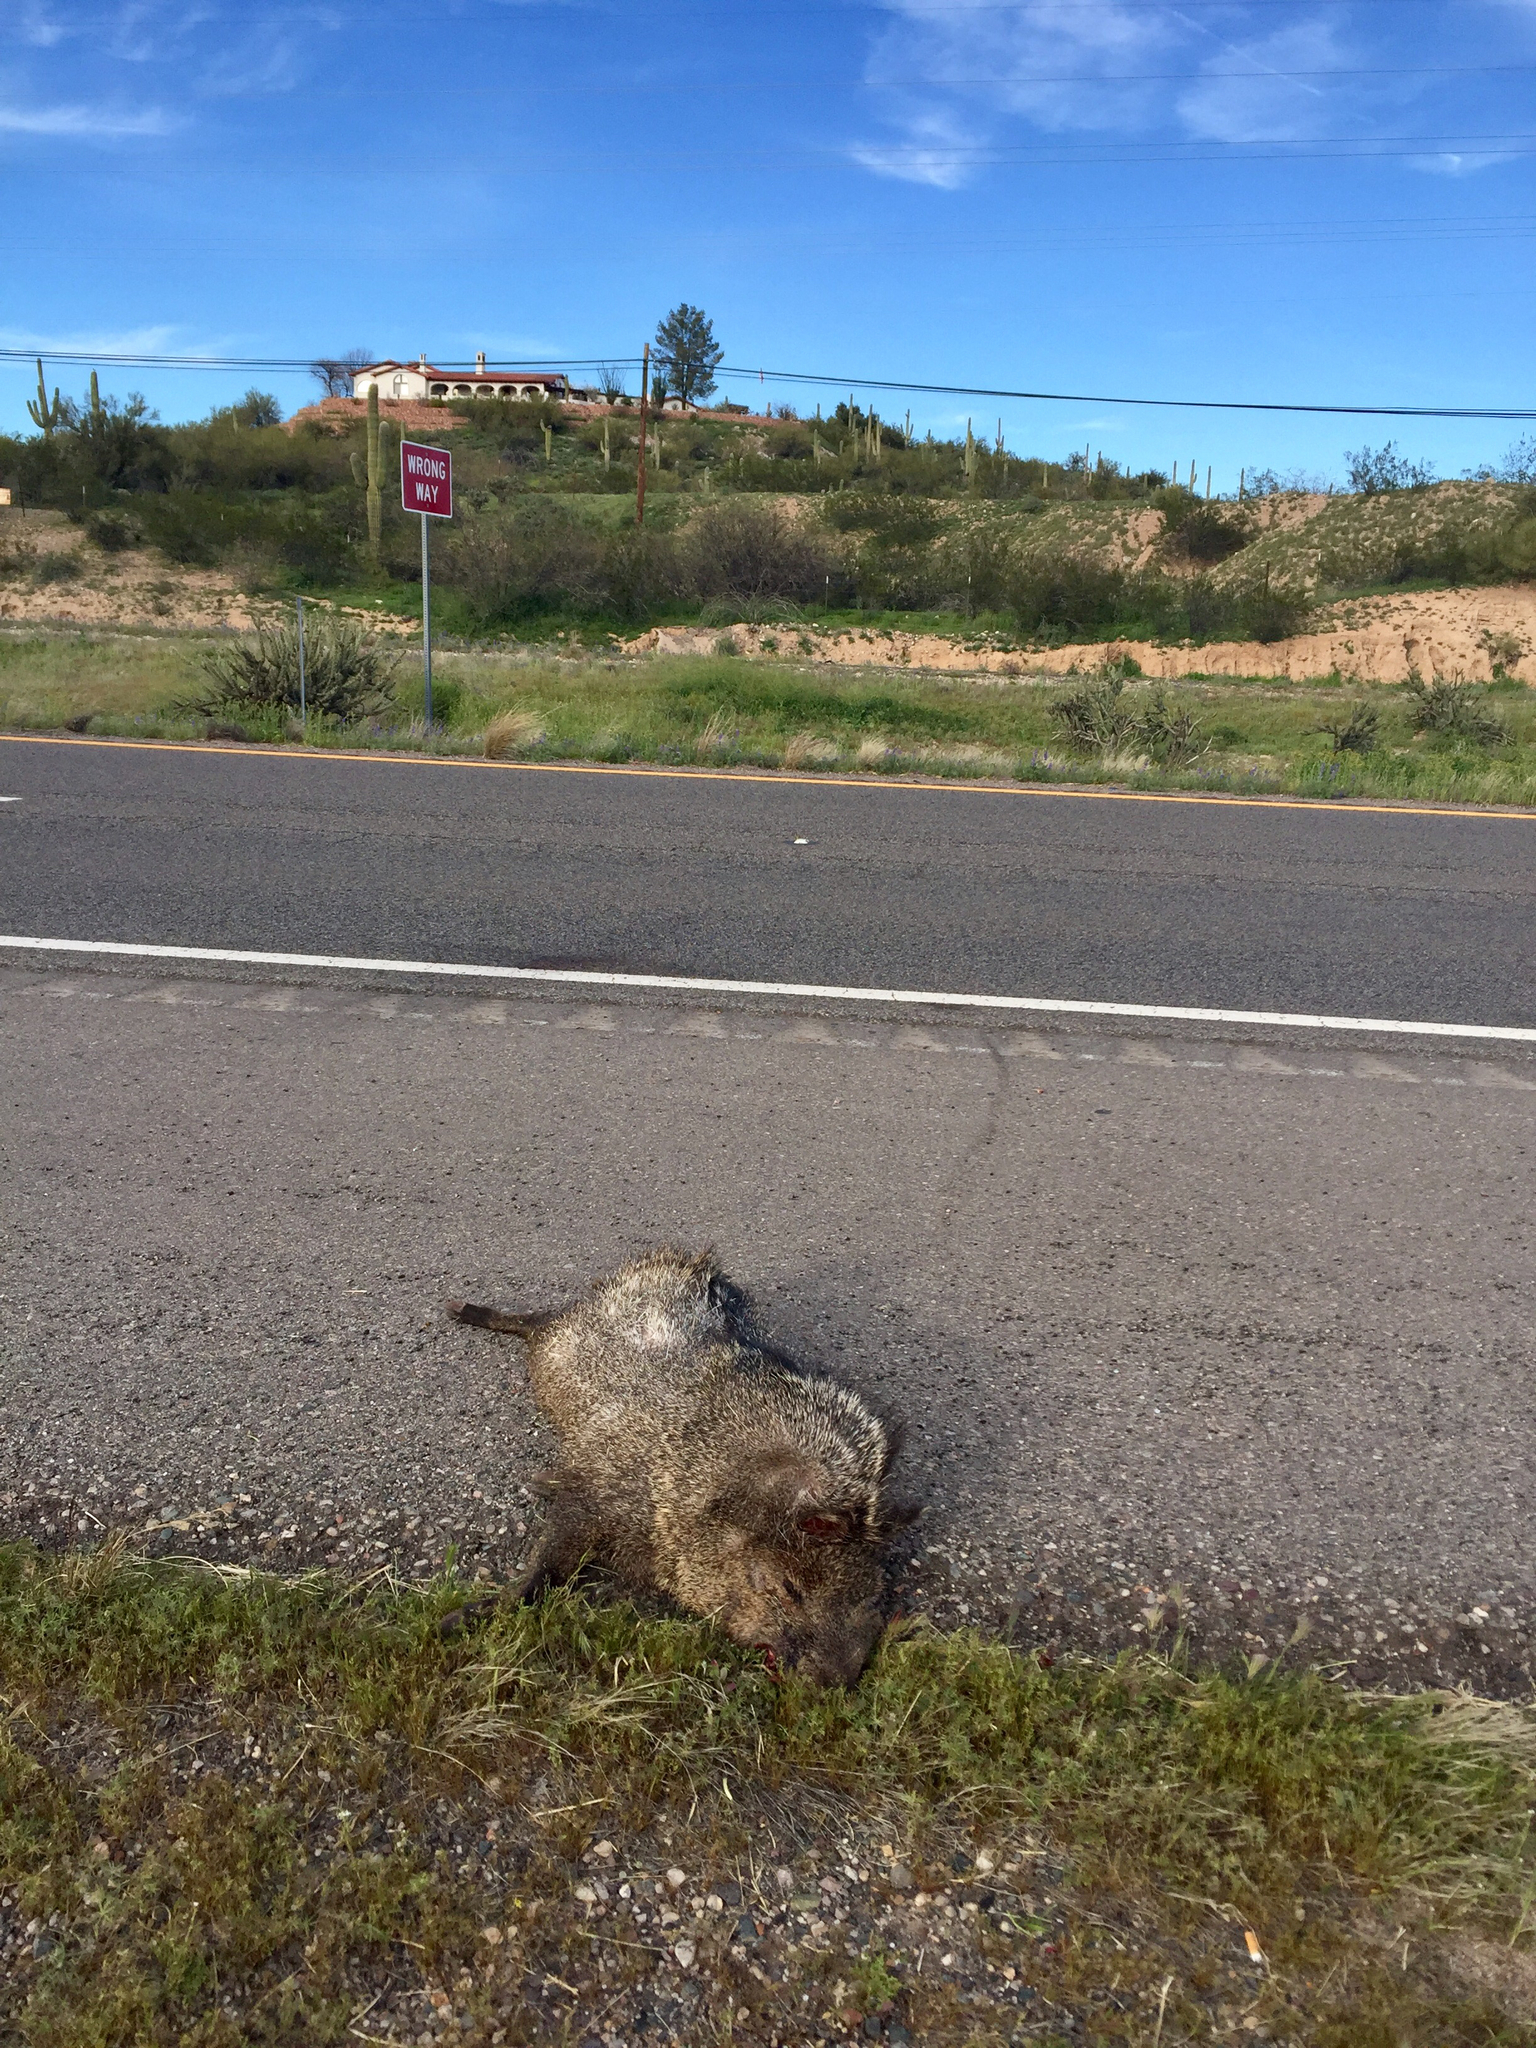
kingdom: Animalia
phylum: Chordata
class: Mammalia
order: Artiodactyla
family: Tayassuidae
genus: Pecari
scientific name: Pecari tajacu
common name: Collared peccary
